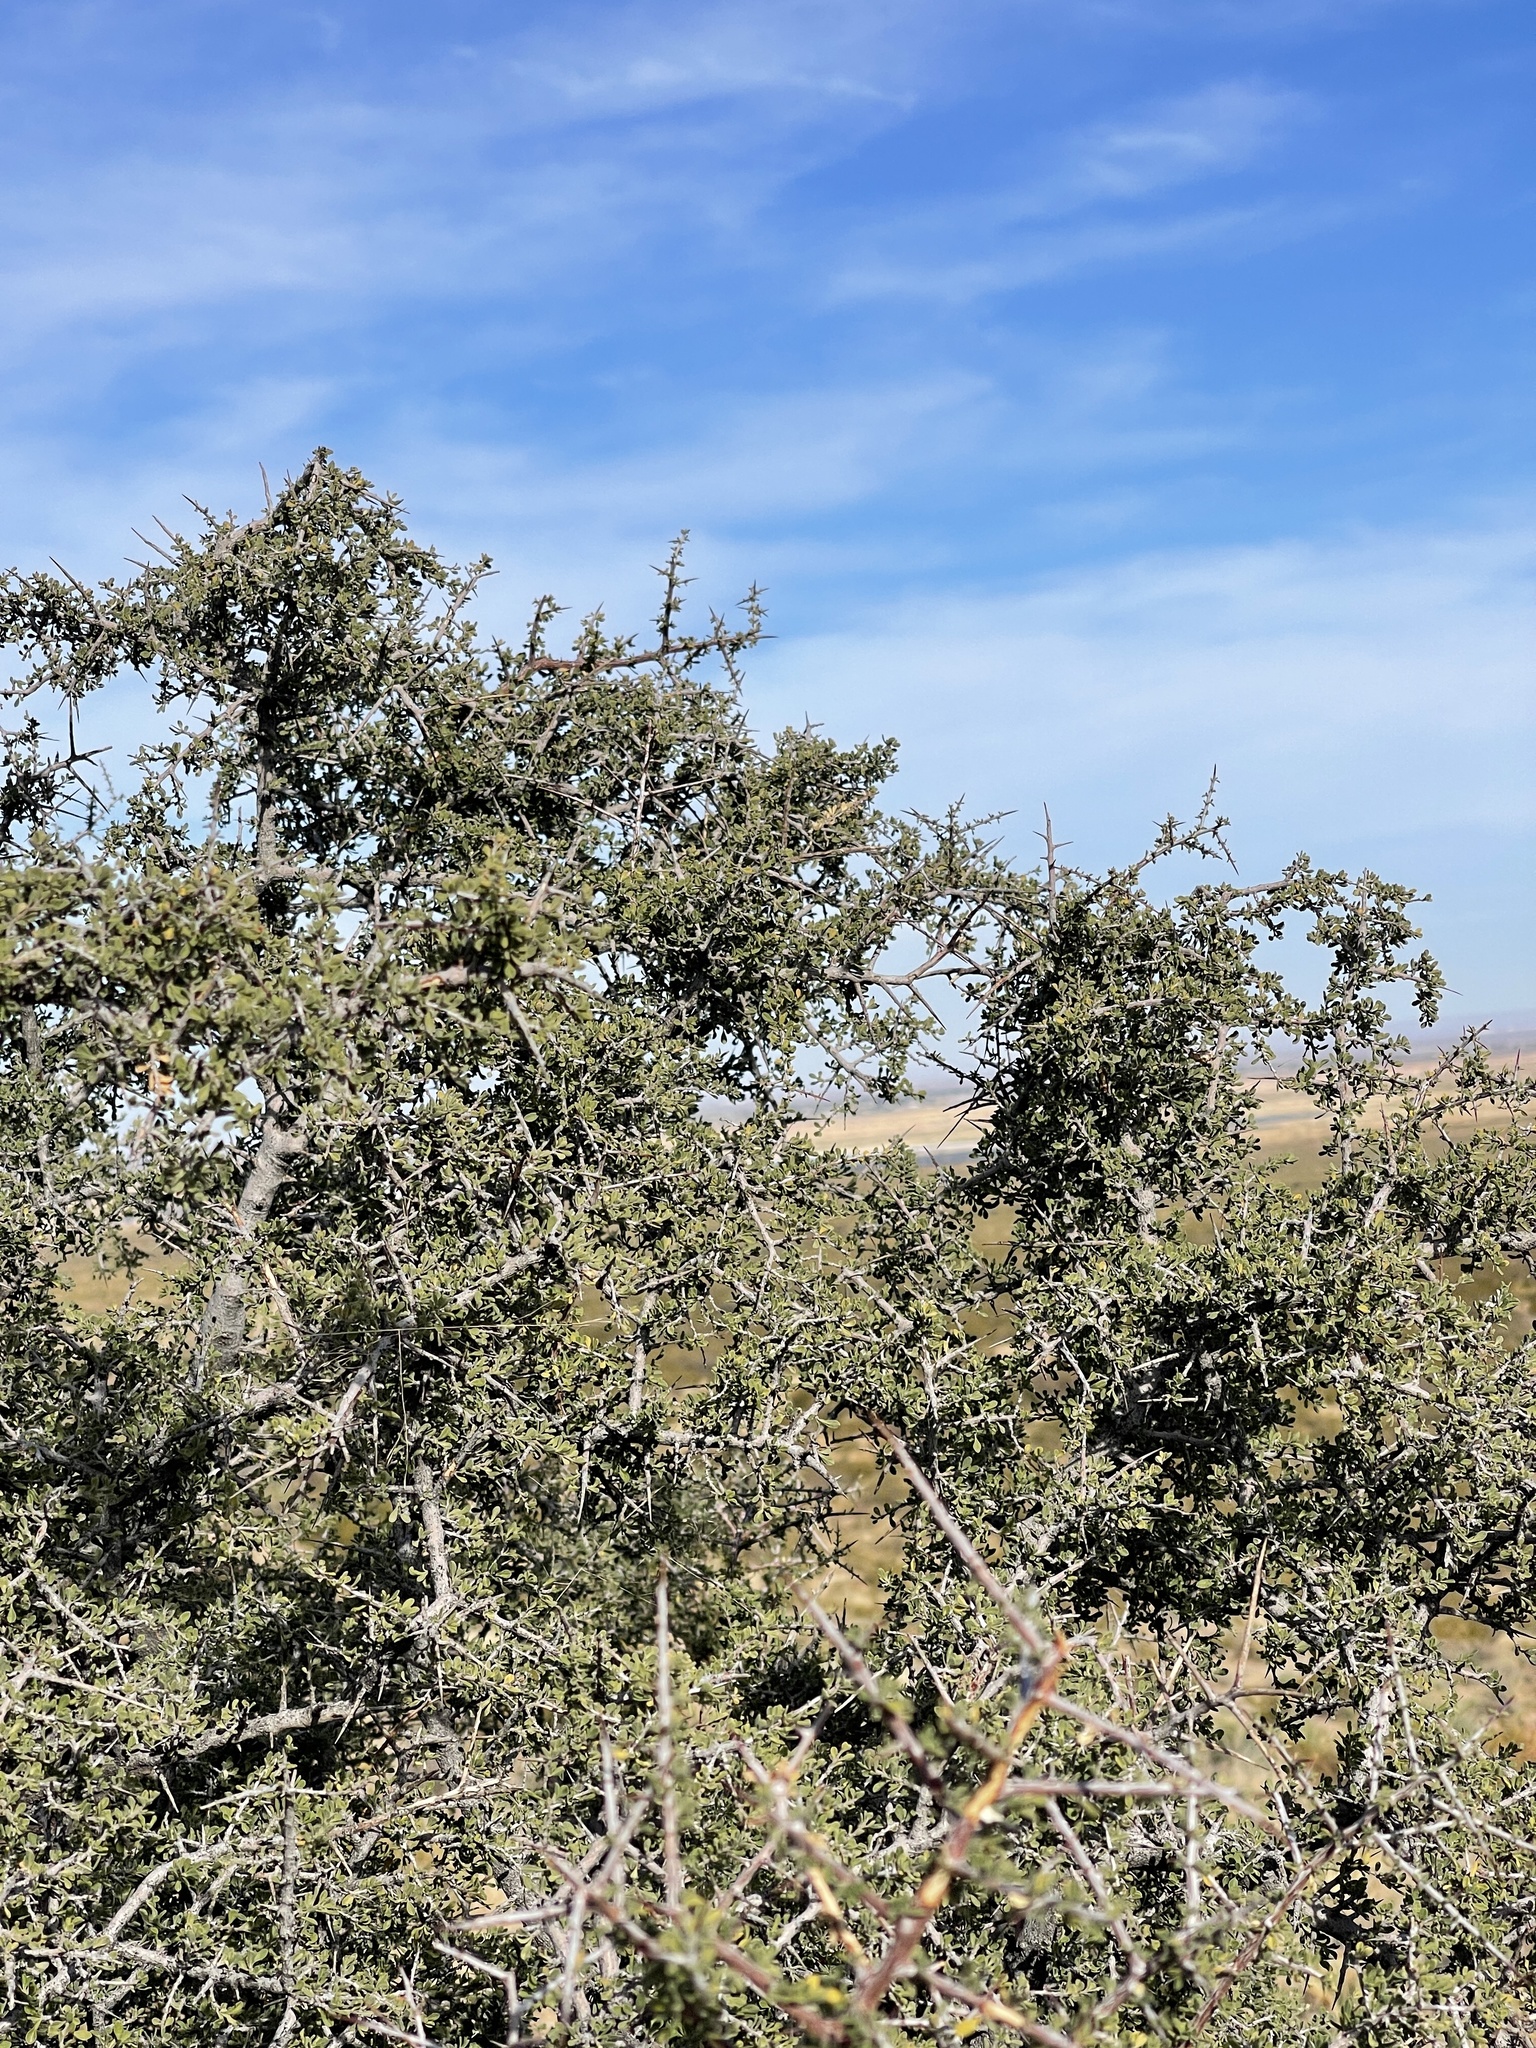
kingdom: Plantae
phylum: Tracheophyta
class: Magnoliopsida
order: Rosales
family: Rhamnaceae
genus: Condalia
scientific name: Condalia warnockii
